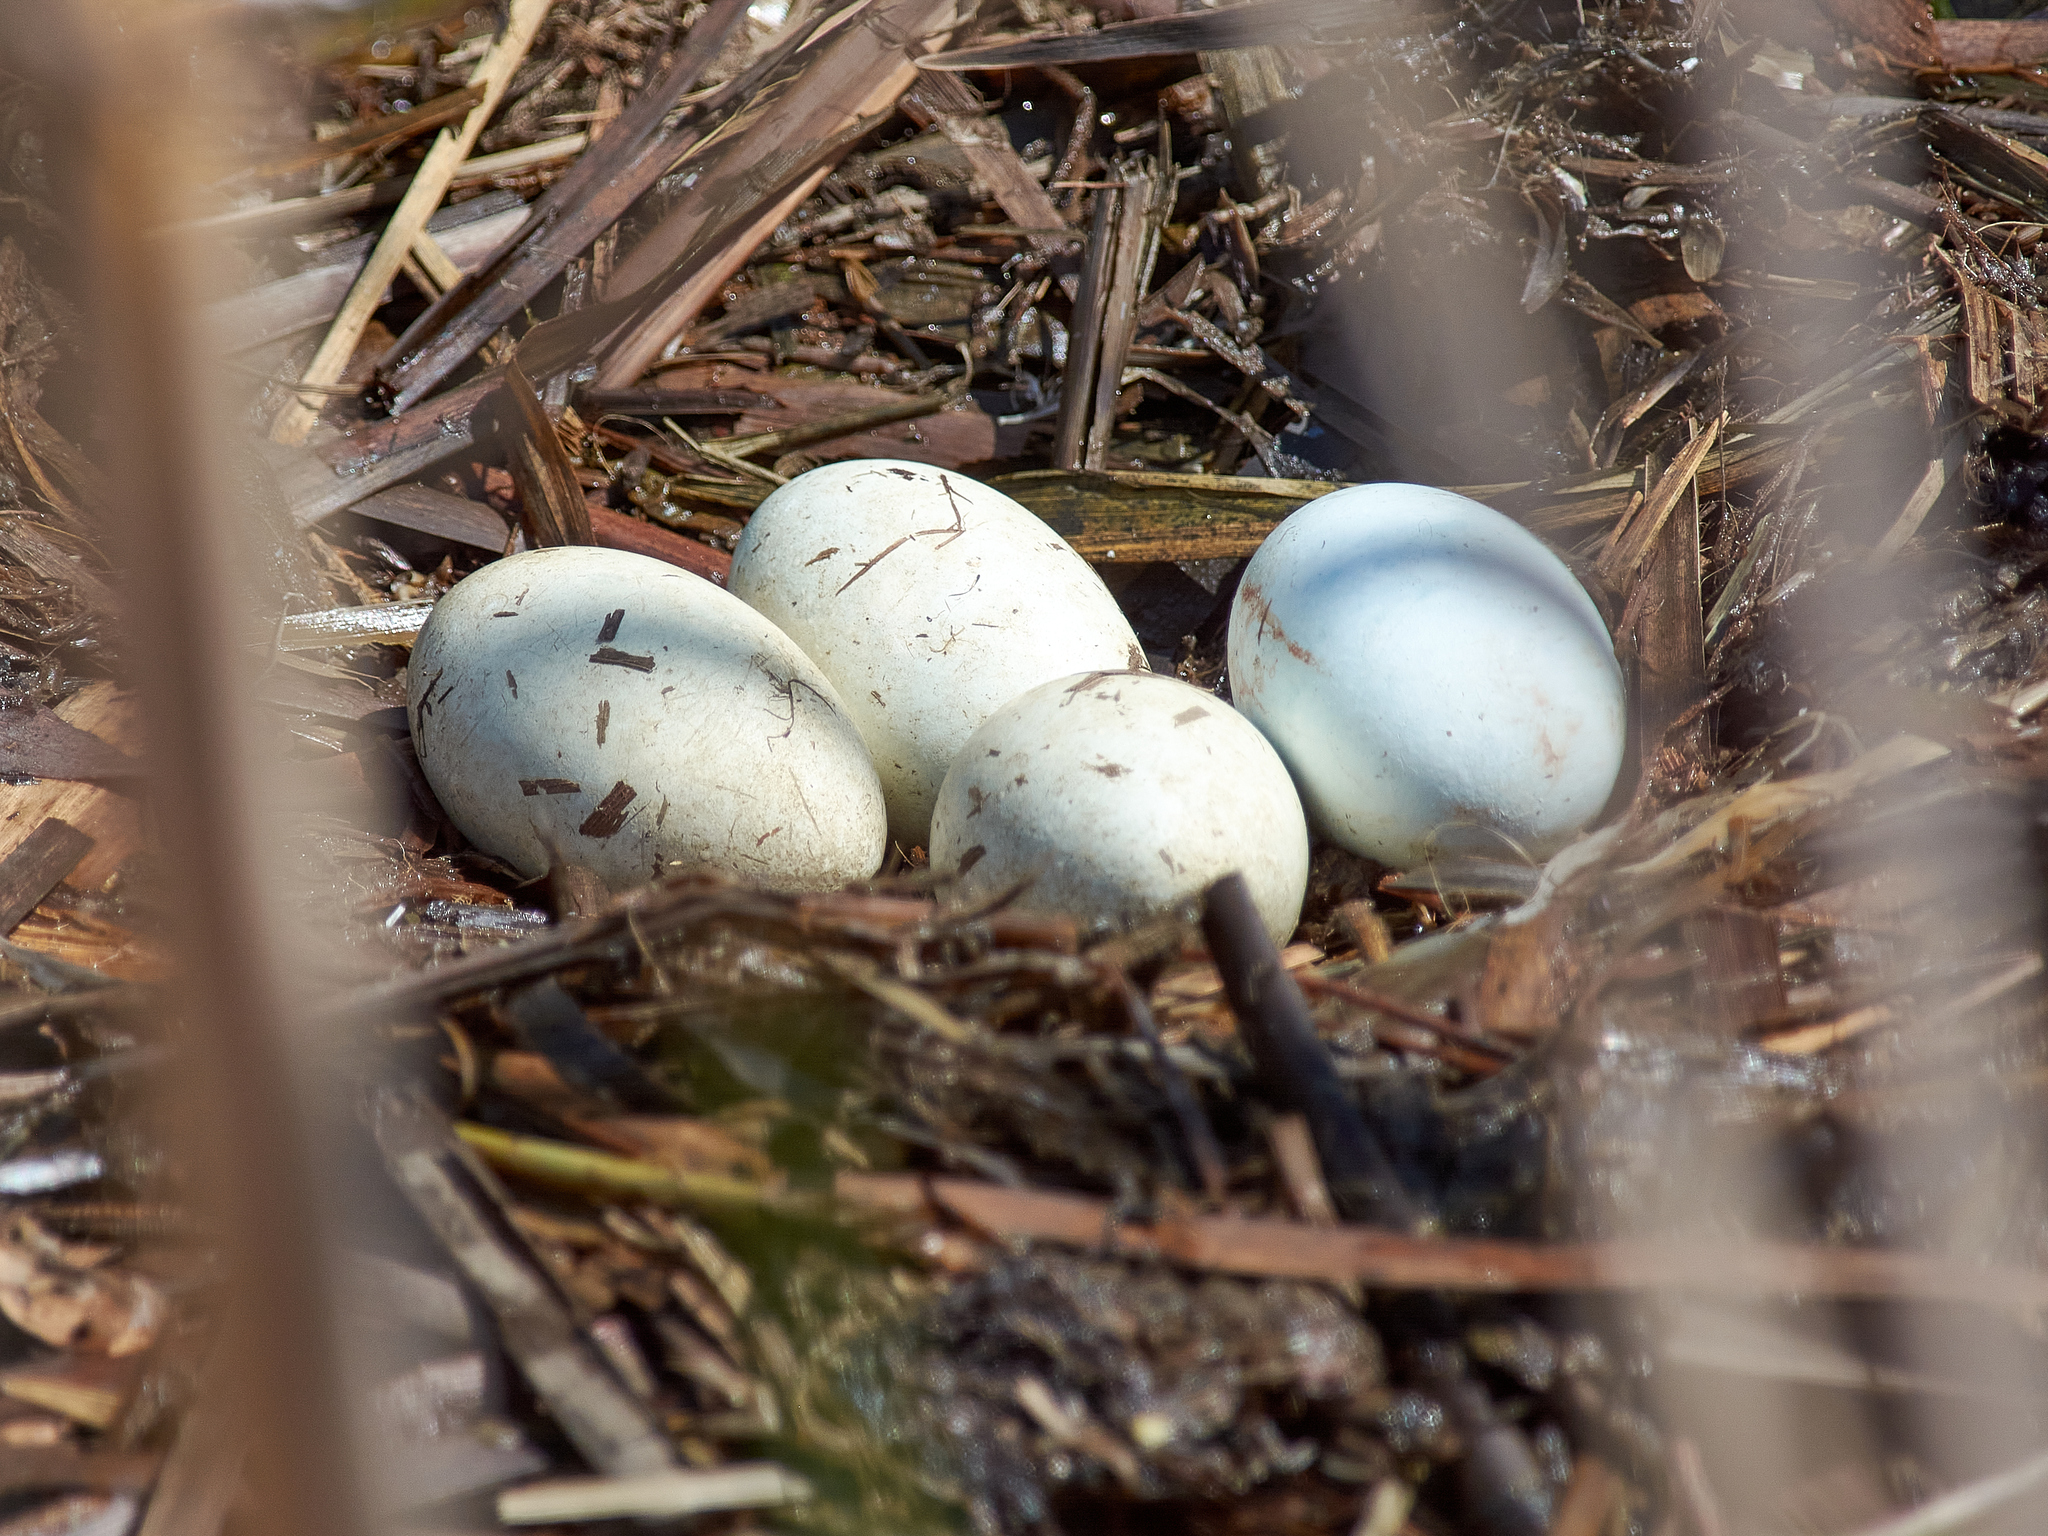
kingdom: Animalia
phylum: Chordata
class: Aves
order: Podicipediformes
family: Podicipedidae
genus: Podiceps
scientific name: Podiceps cristatus
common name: Great crested grebe
